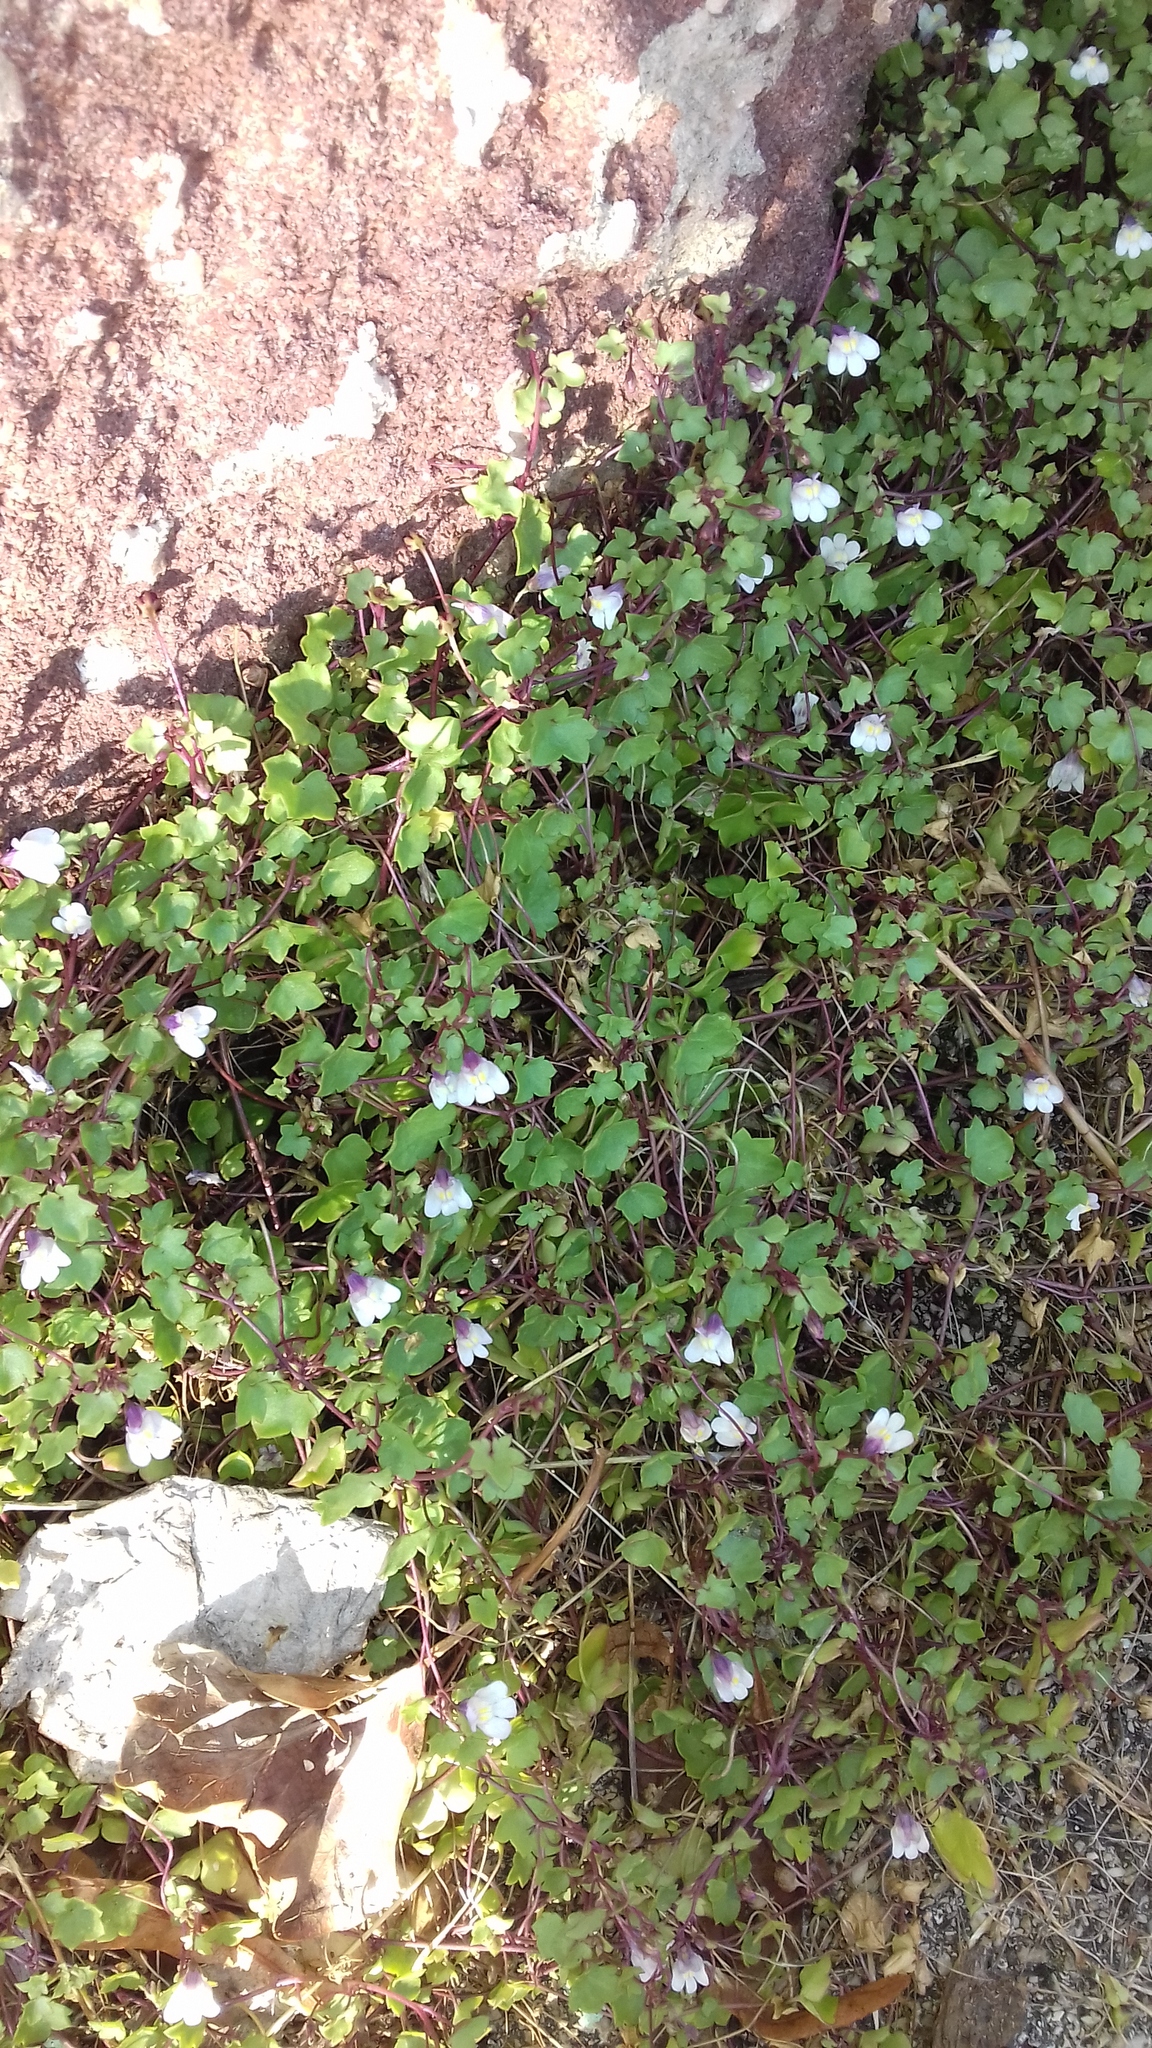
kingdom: Plantae
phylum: Tracheophyta
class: Magnoliopsida
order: Lamiales
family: Plantaginaceae
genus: Cymbalaria
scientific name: Cymbalaria muralis
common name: Ivy-leaved toadflax
